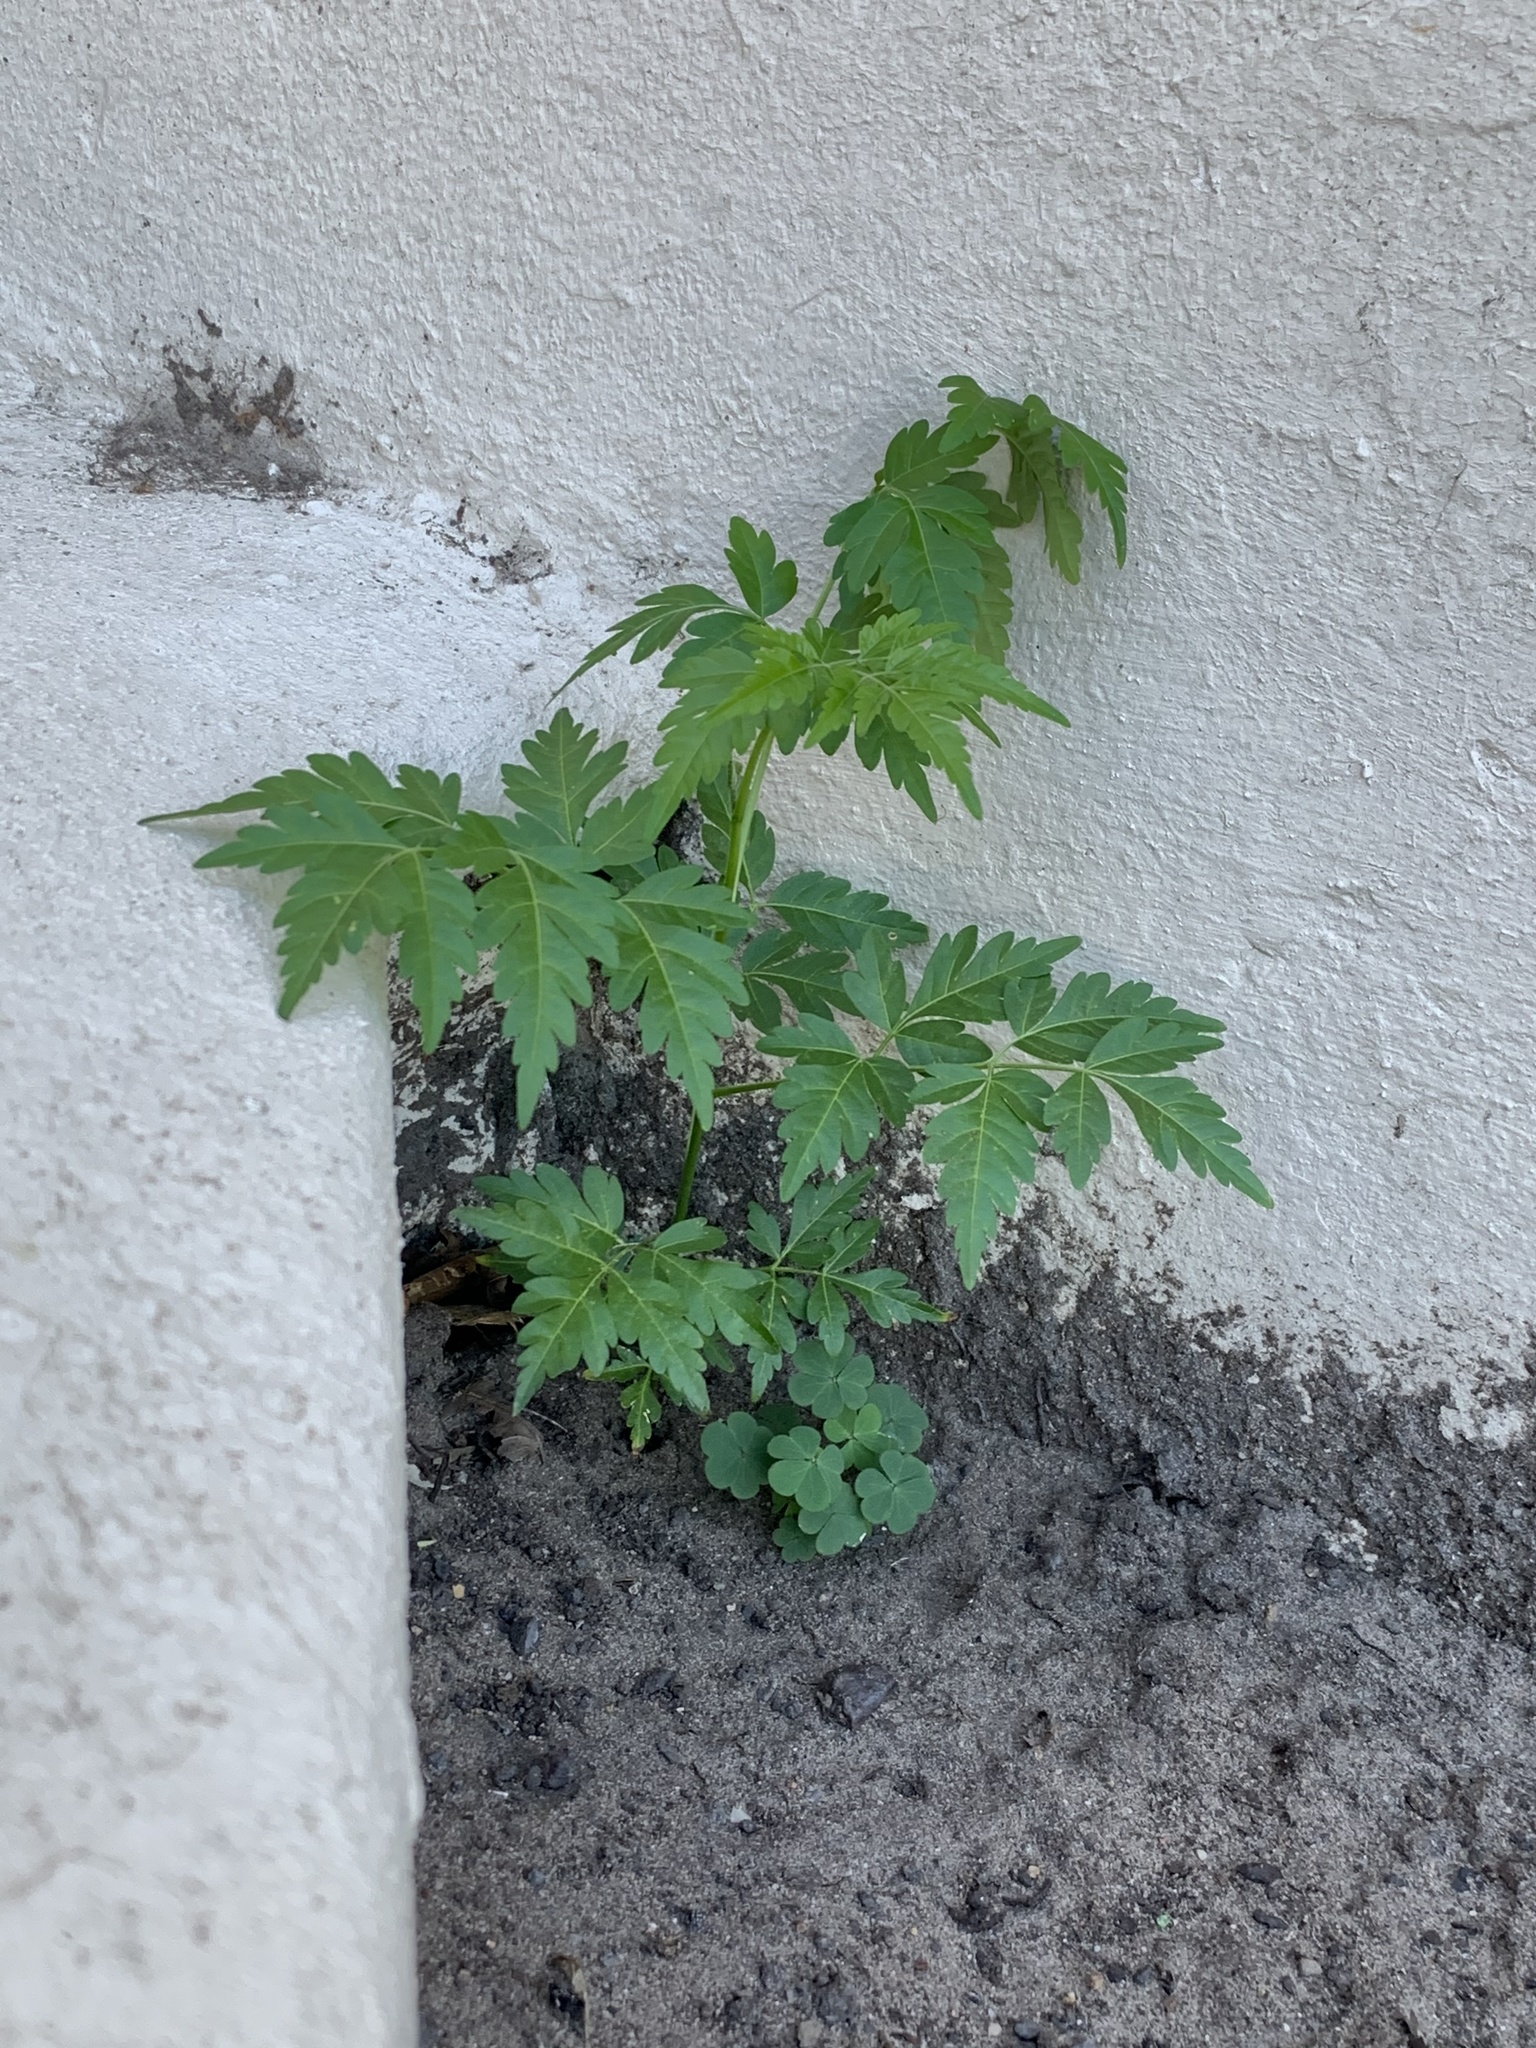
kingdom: Plantae
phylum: Tracheophyta
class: Magnoliopsida
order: Sapindales
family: Meliaceae
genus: Melia
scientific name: Melia azedarach
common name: Chinaberrytree
